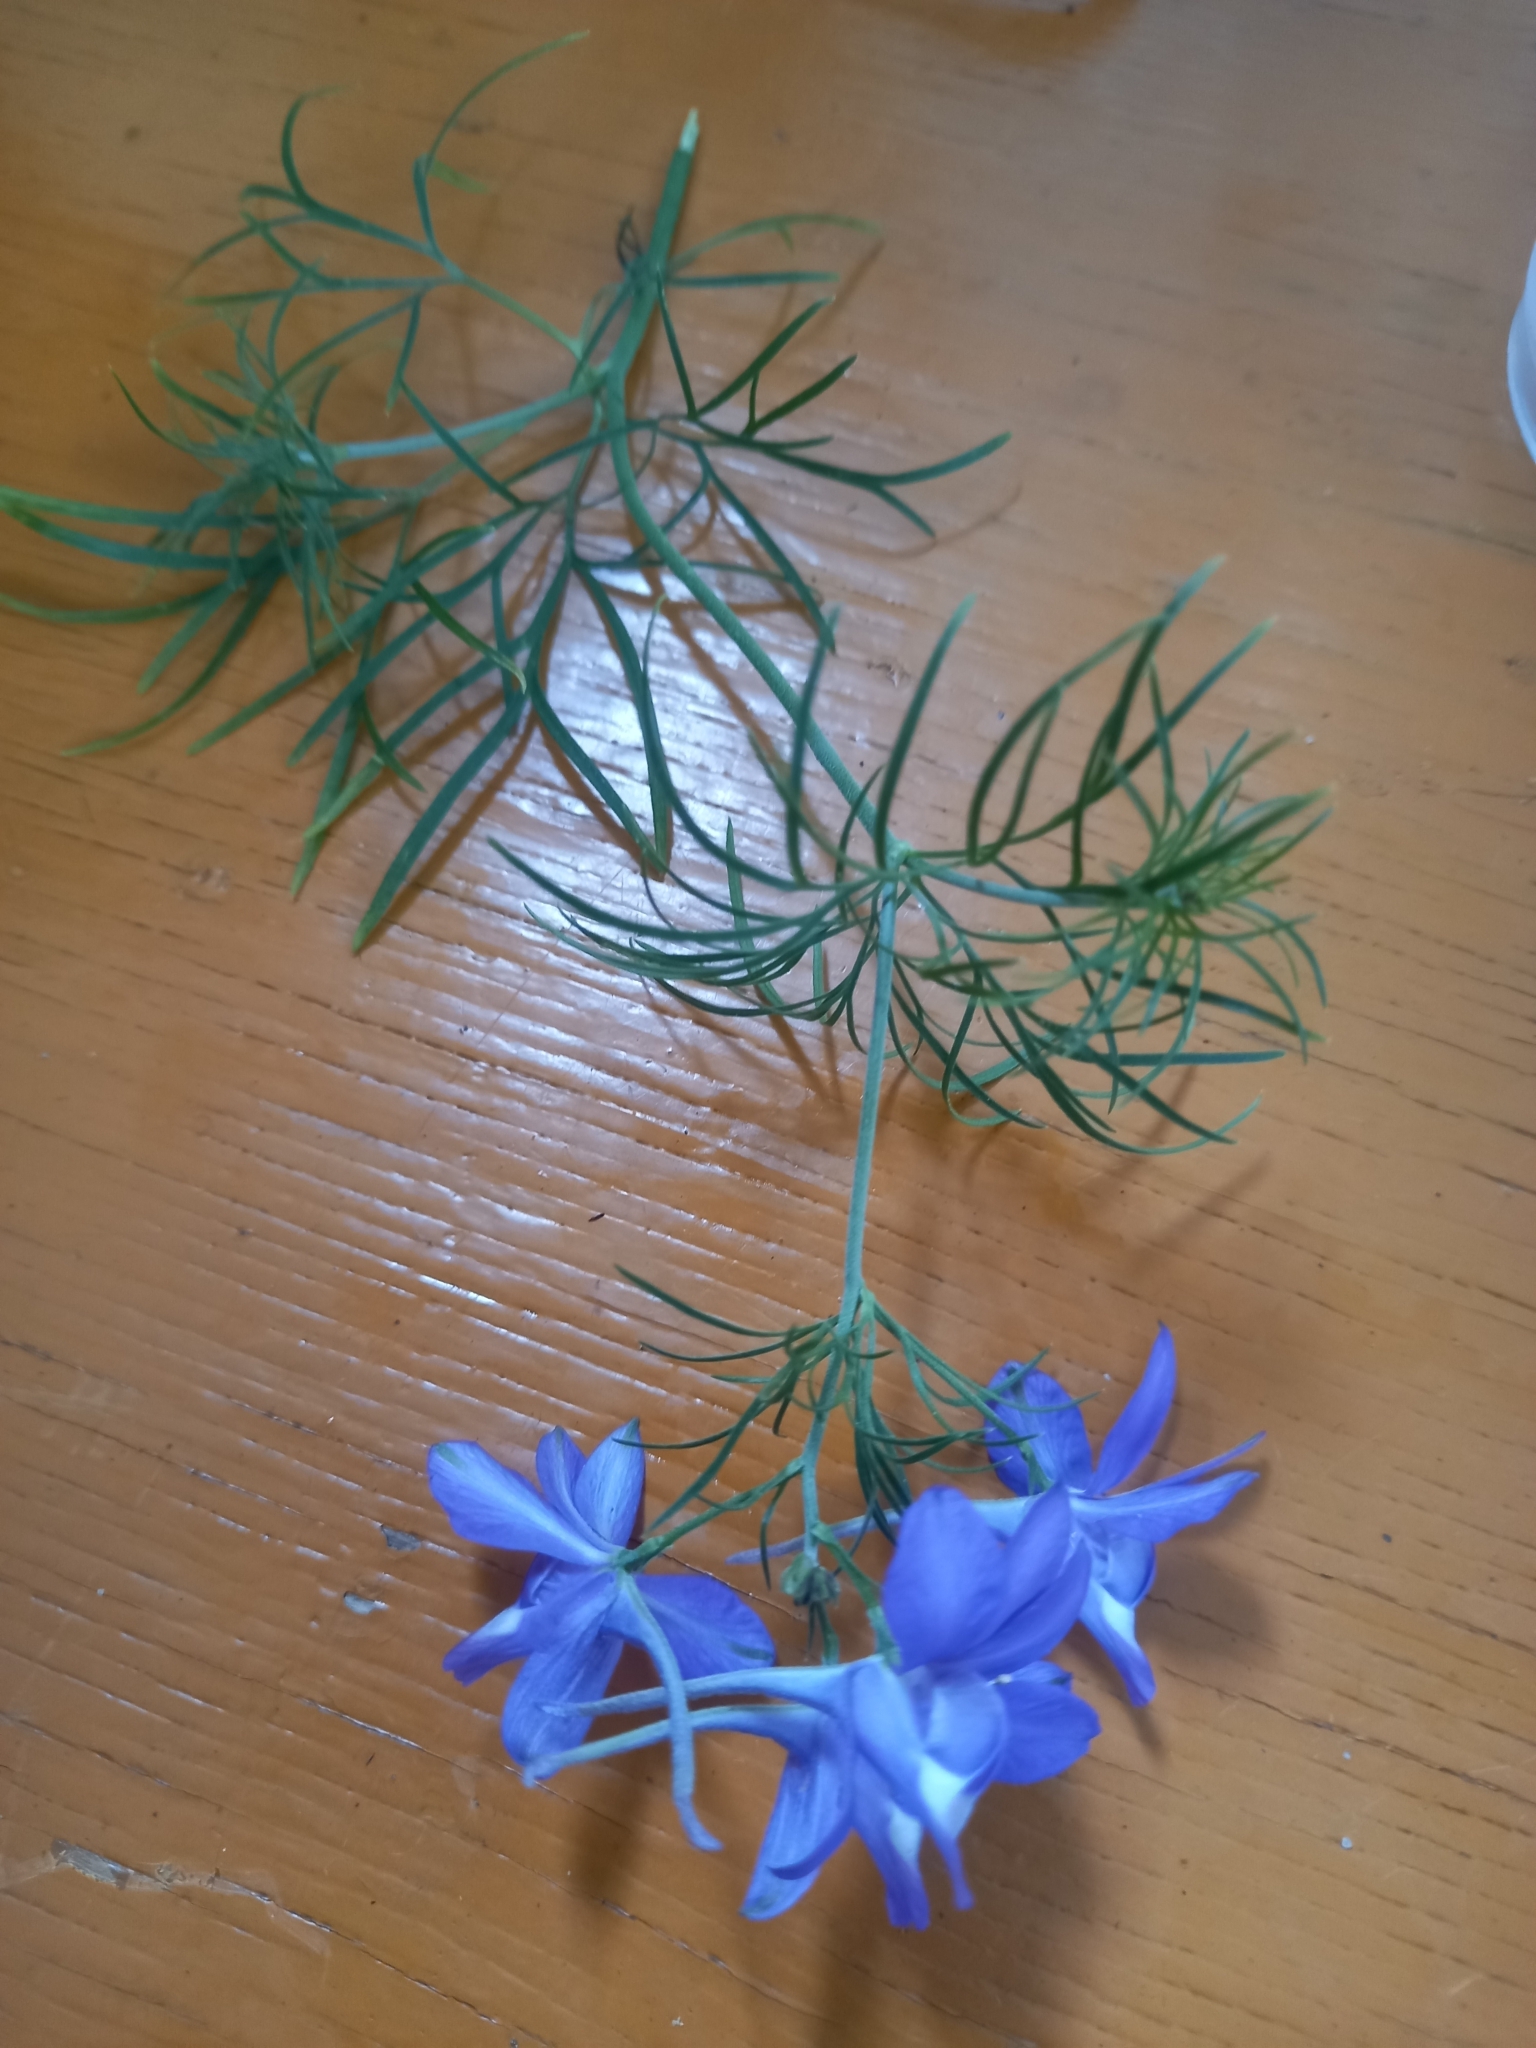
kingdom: Plantae
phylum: Tracheophyta
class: Magnoliopsida
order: Ranunculales
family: Ranunculaceae
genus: Delphinium
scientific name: Delphinium consolida
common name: Branching larkspur
